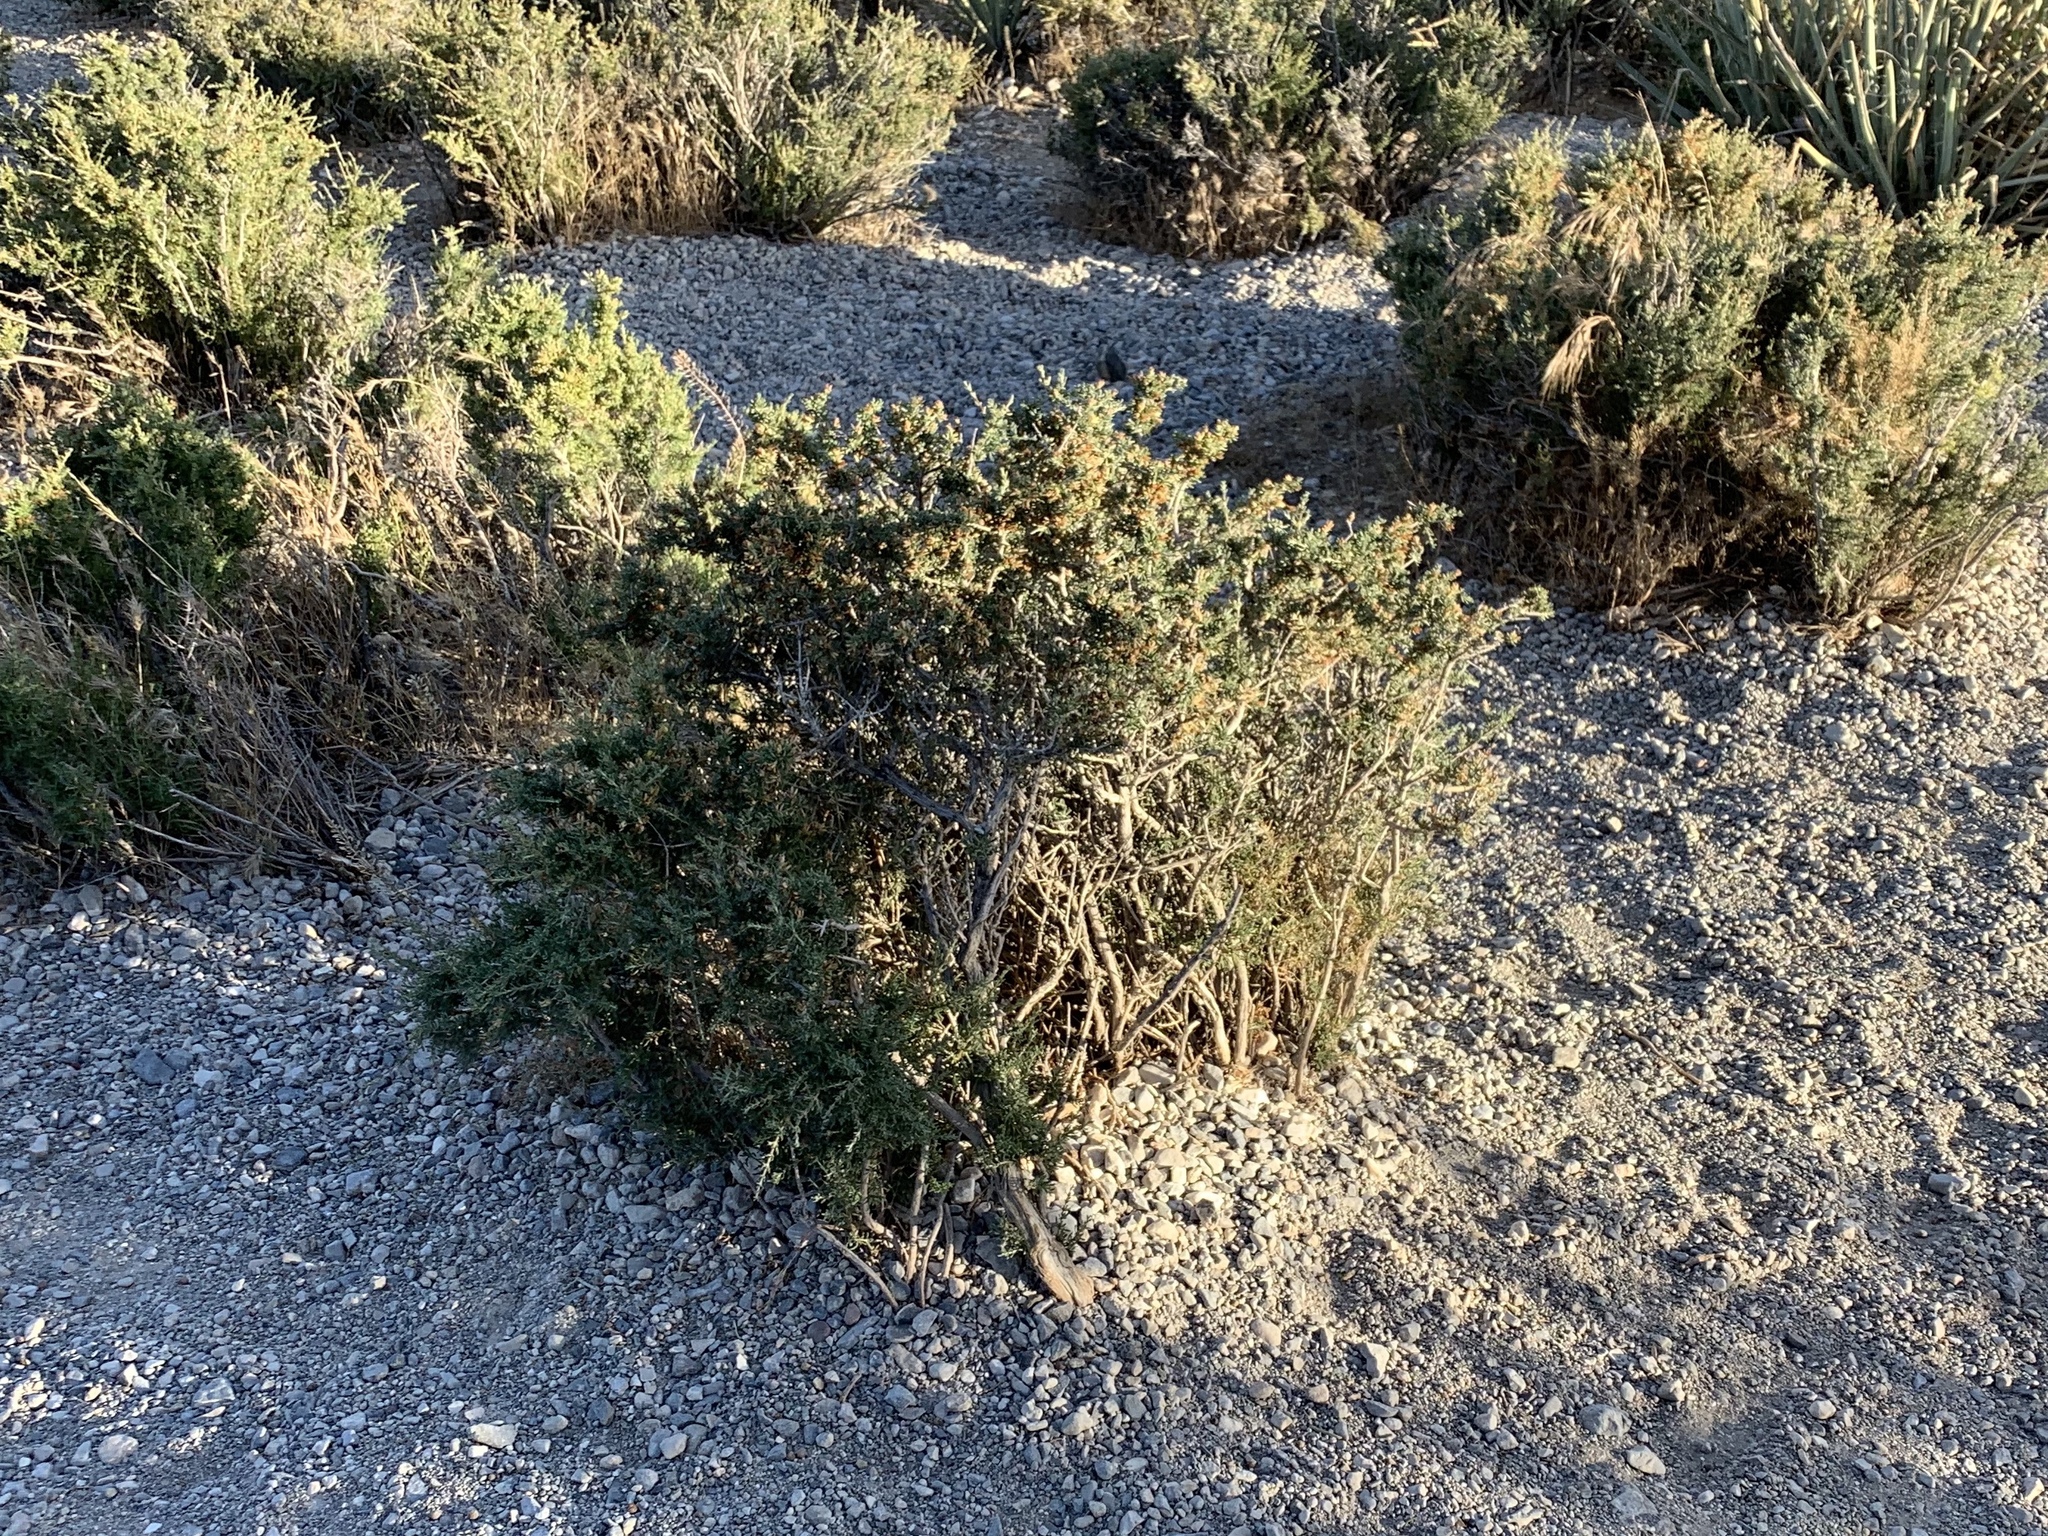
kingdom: Plantae
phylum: Tracheophyta
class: Magnoliopsida
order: Rosales
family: Rosaceae
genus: Coleogyne
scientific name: Coleogyne ramosissima
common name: Blackbrush
